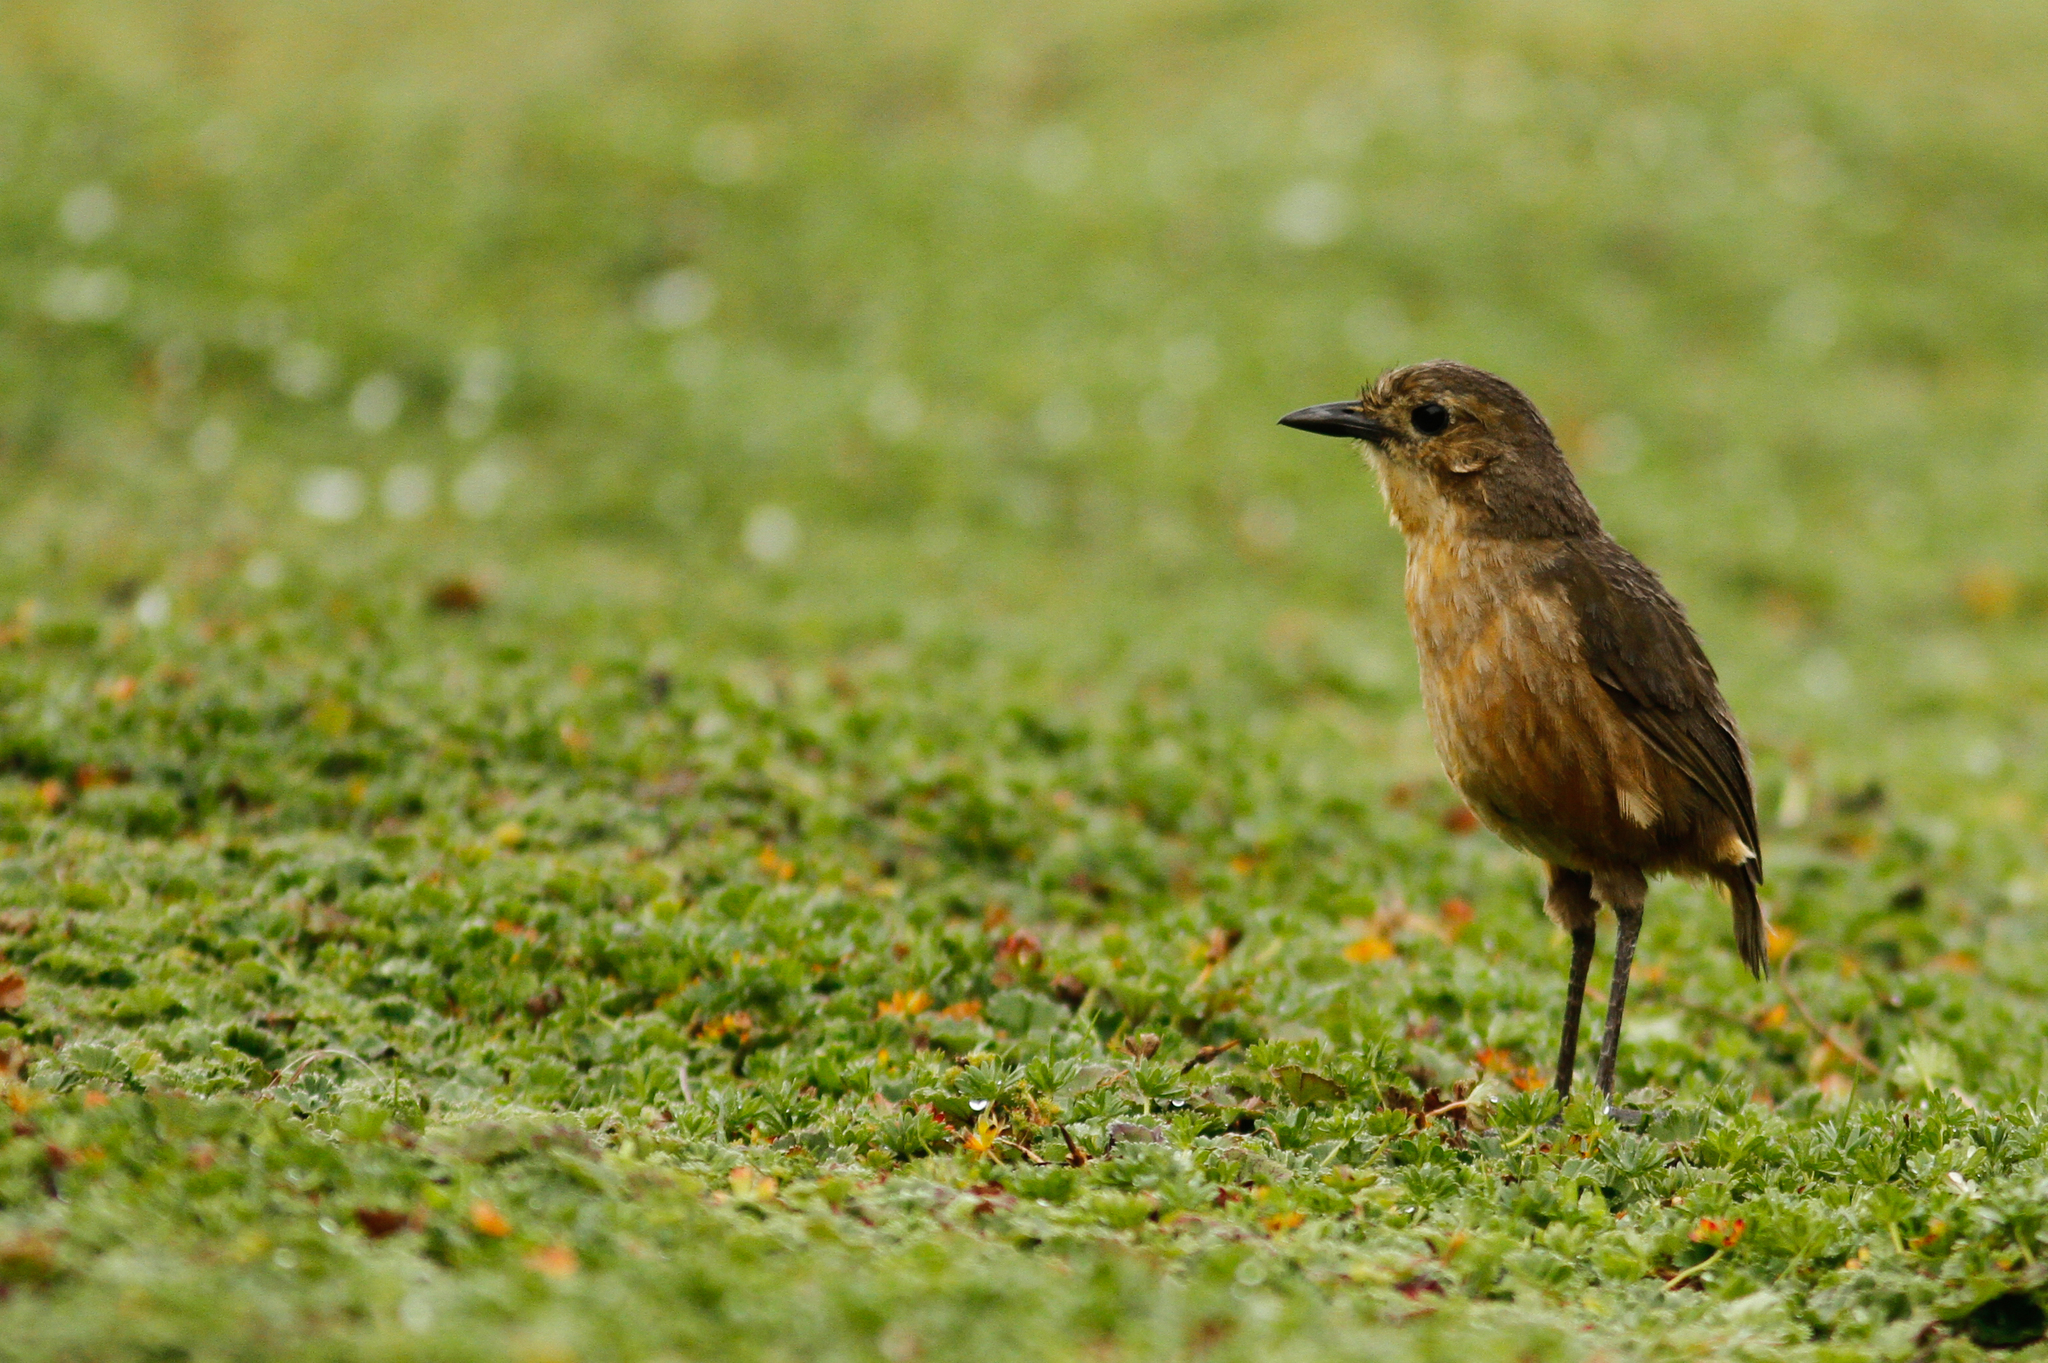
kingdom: Animalia
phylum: Chordata
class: Aves
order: Passeriformes
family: Grallariidae
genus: Grallaria
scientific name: Grallaria quitensis
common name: Tawny antpitta
